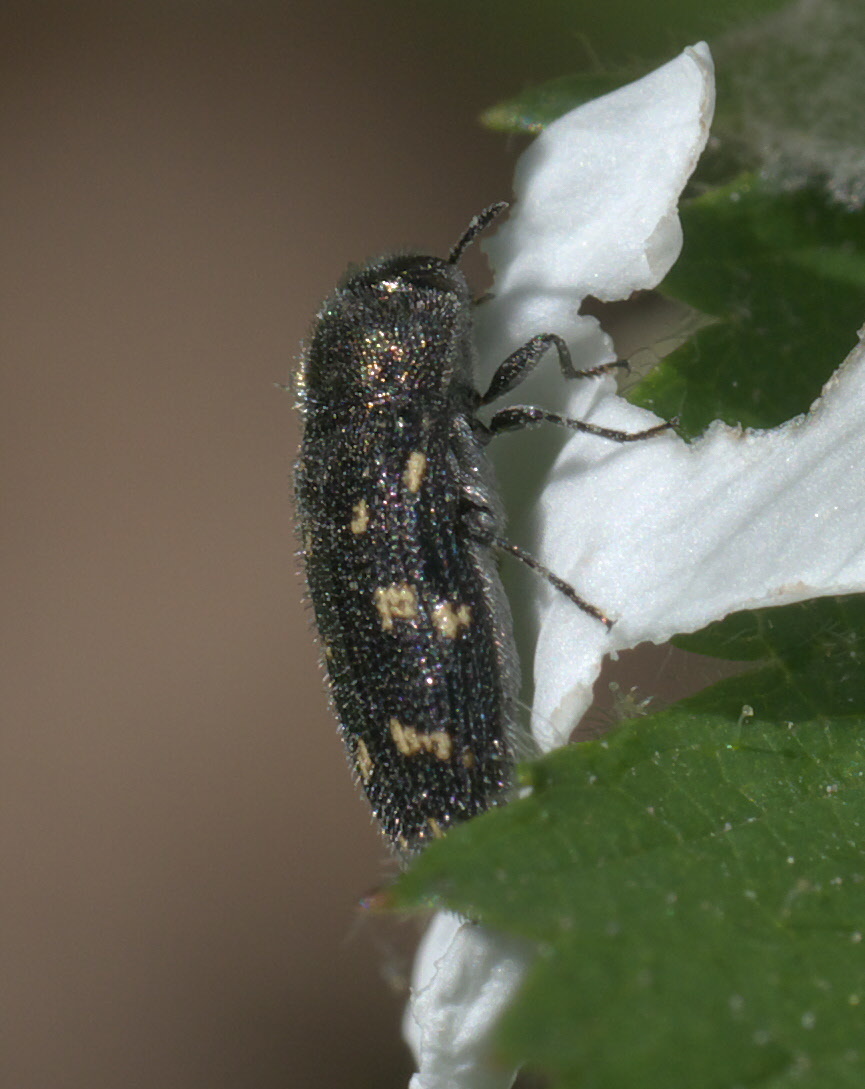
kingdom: Animalia
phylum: Arthropoda
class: Insecta
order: Coleoptera
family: Buprestidae
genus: Acmaeodera
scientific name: Acmaeodera tubulus
